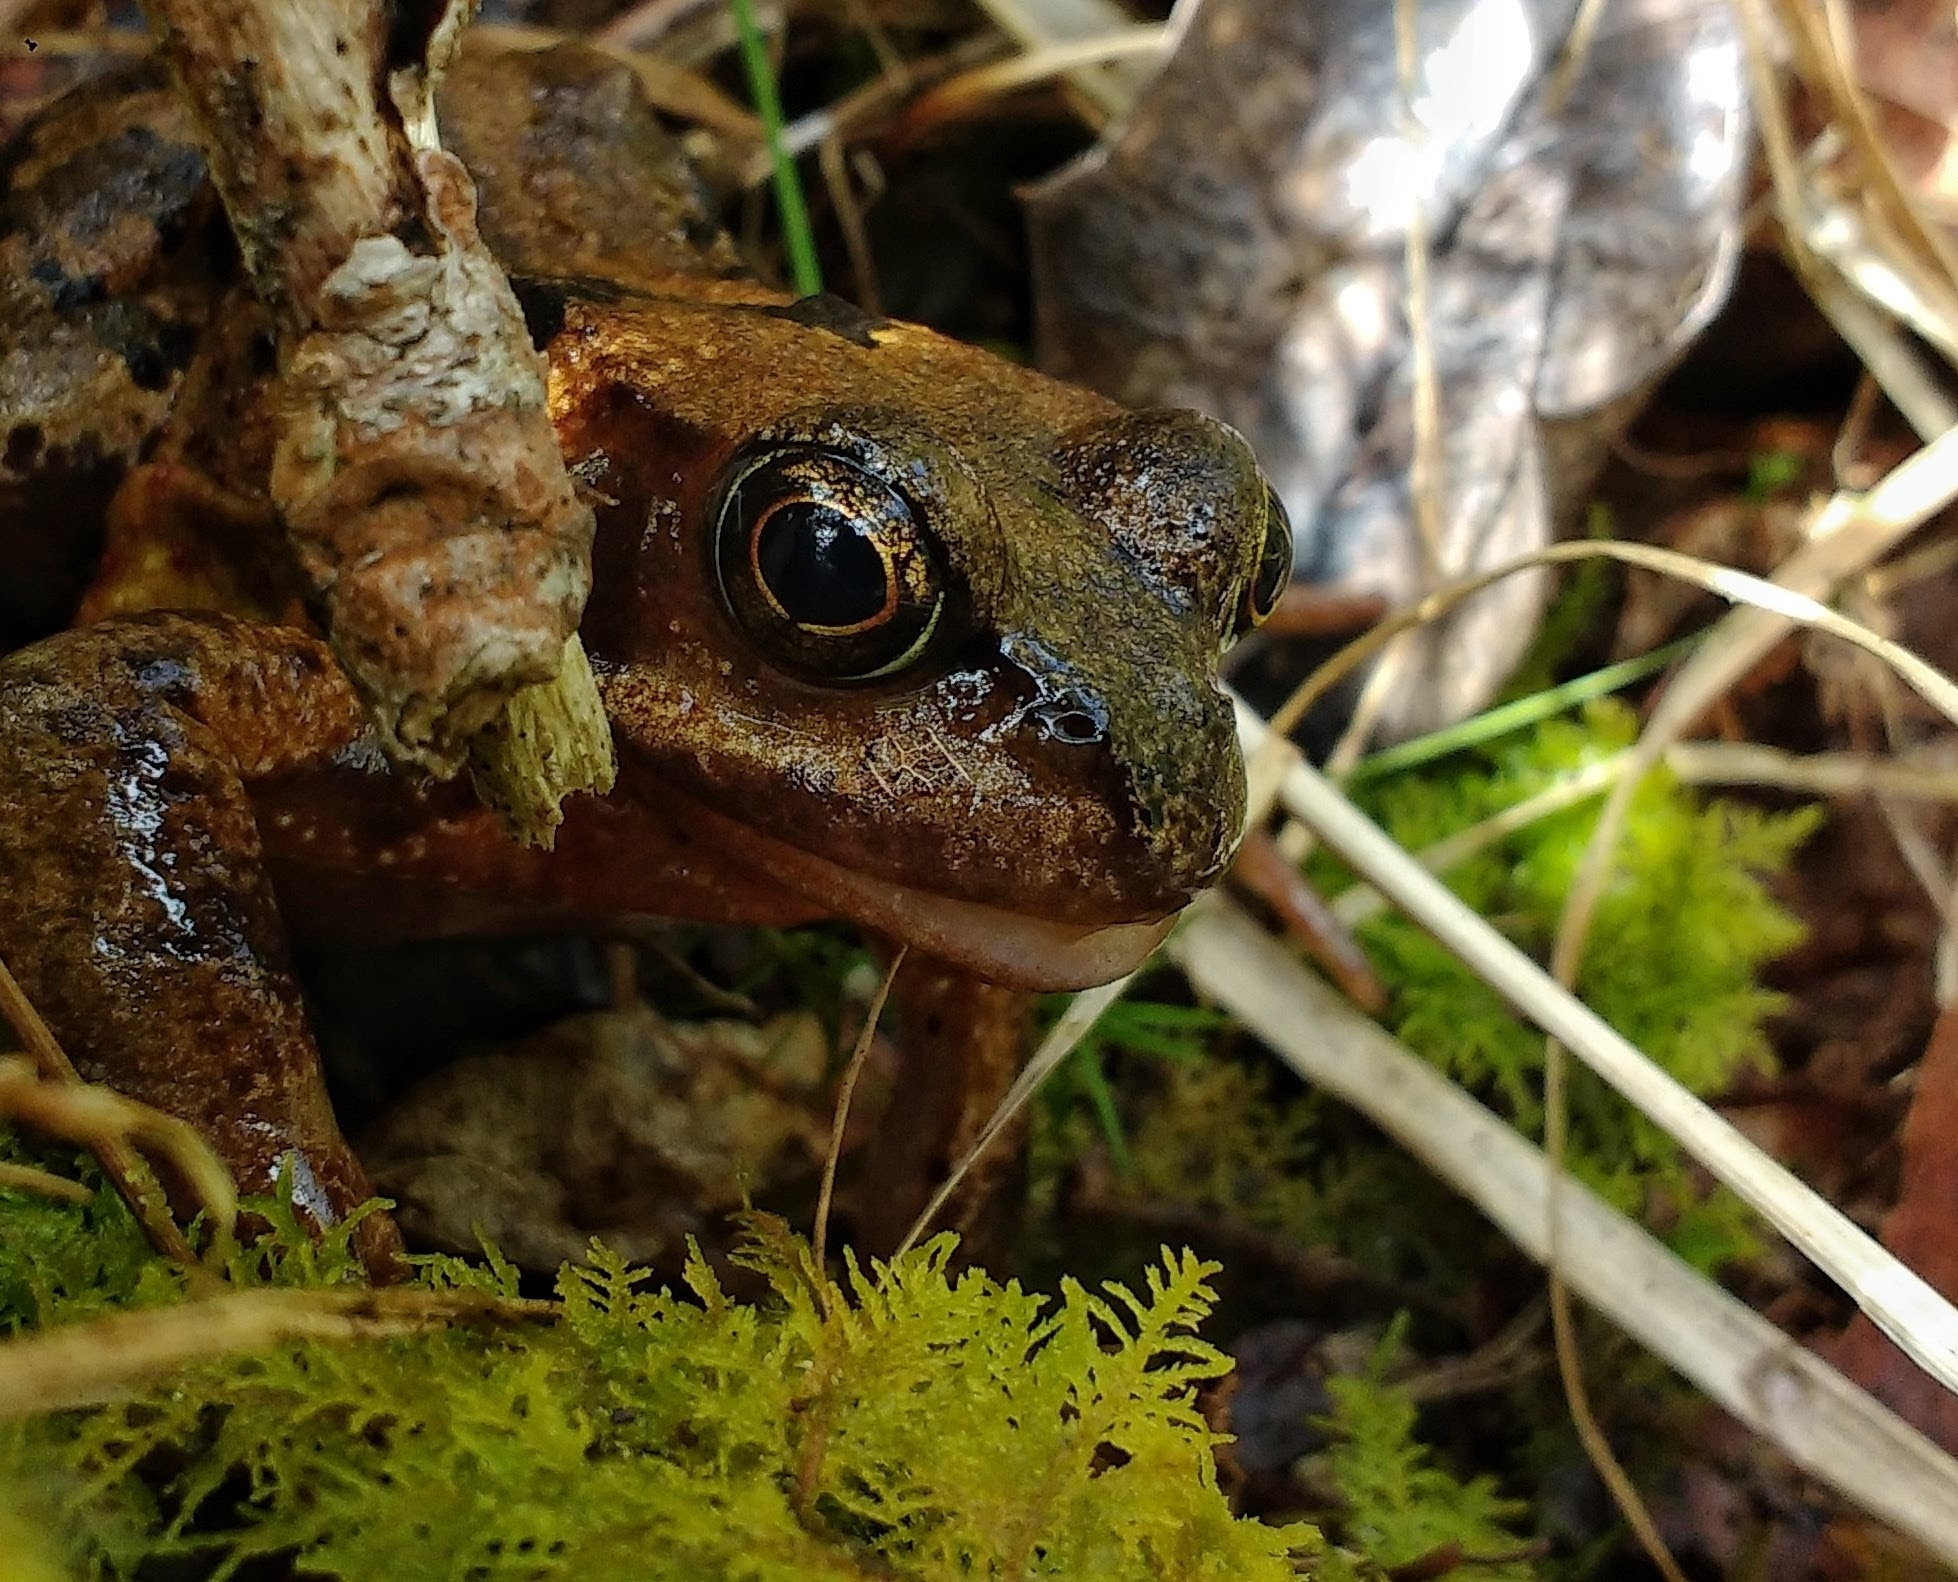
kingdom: Animalia
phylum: Chordata
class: Amphibia
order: Anura
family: Ranidae
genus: Rana
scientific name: Rana temporaria
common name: Common frog
